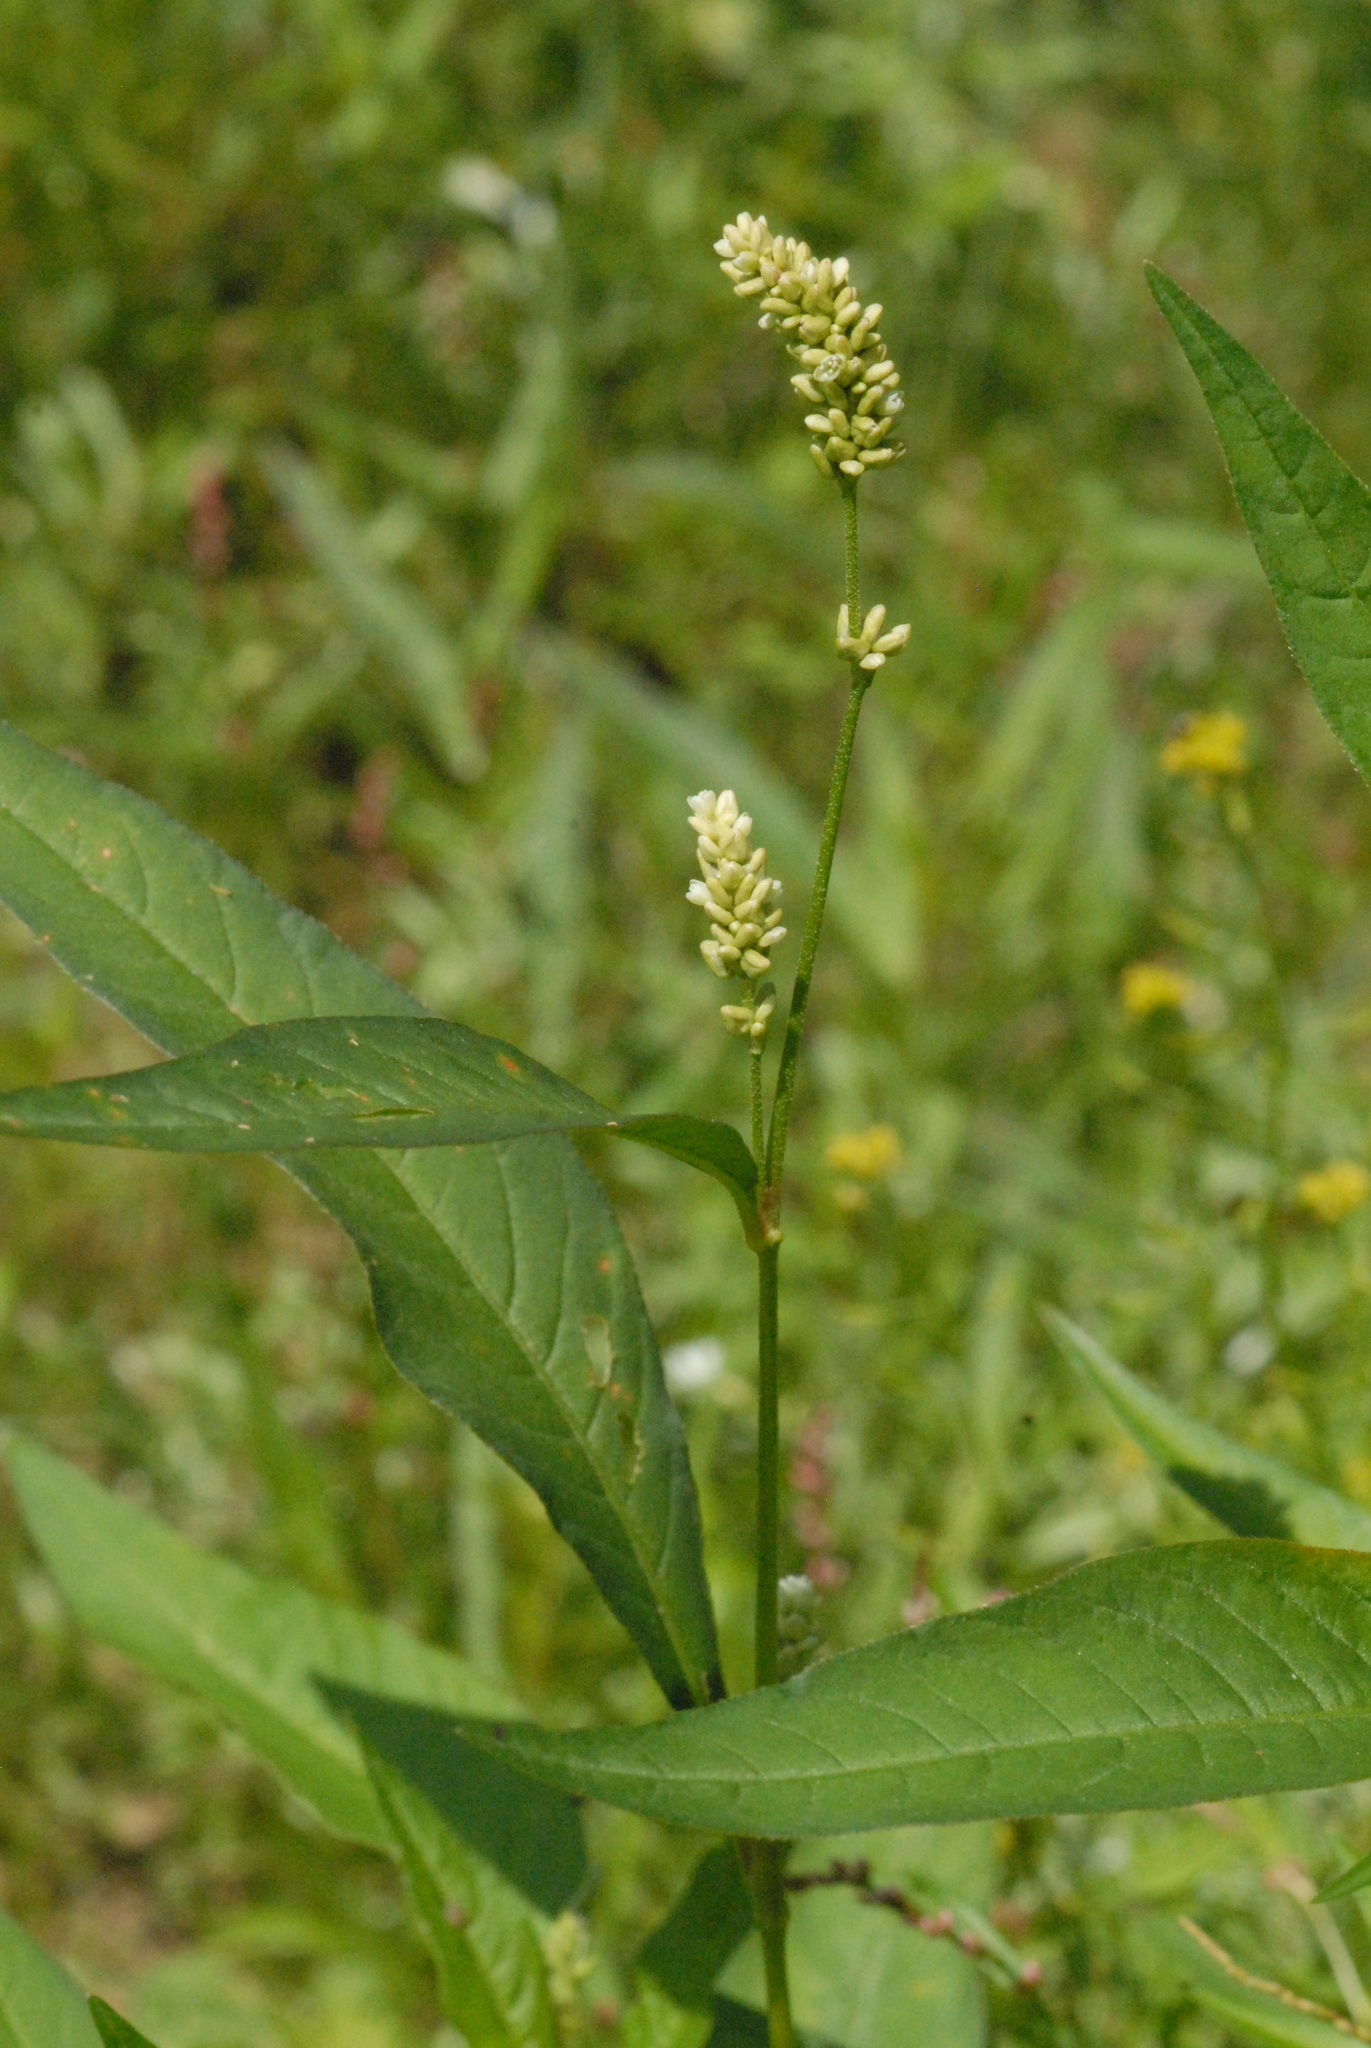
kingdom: Plantae
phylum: Tracheophyta
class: Magnoliopsida
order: Caryophyllales
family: Polygonaceae
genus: Persicaria
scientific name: Persicaria lapathifolia
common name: Curlytop knotweed
